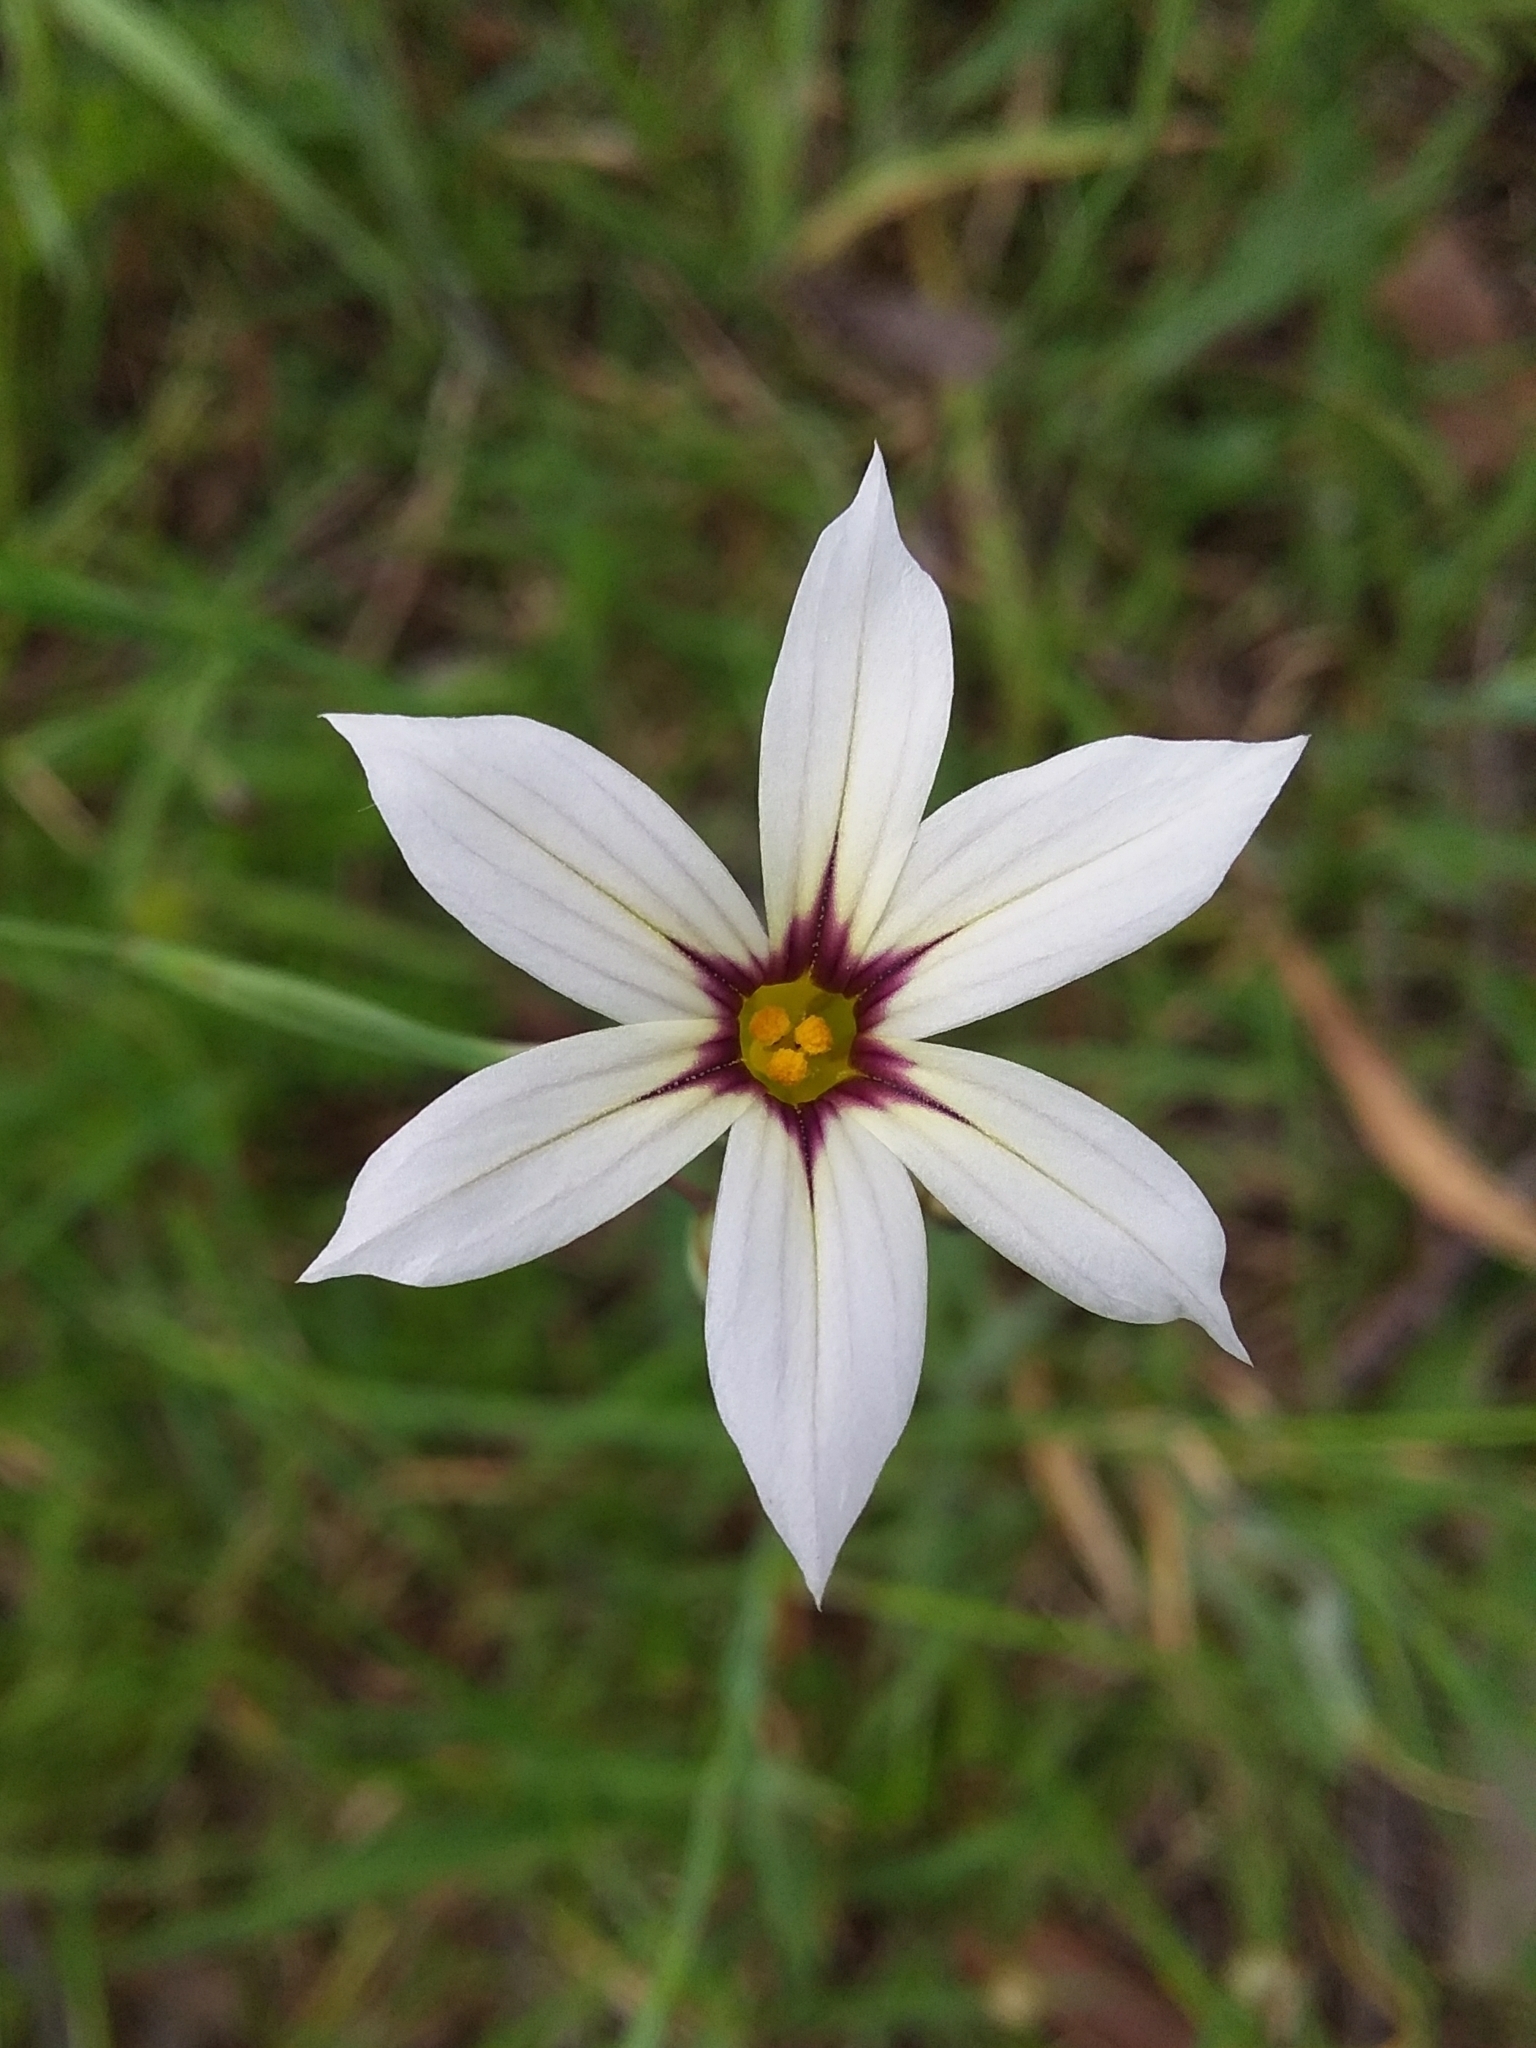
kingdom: Plantae
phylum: Tracheophyta
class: Liliopsida
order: Asparagales
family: Iridaceae
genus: Sisyrinchium
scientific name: Sisyrinchium micranthum
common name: Bermuda pigroot
